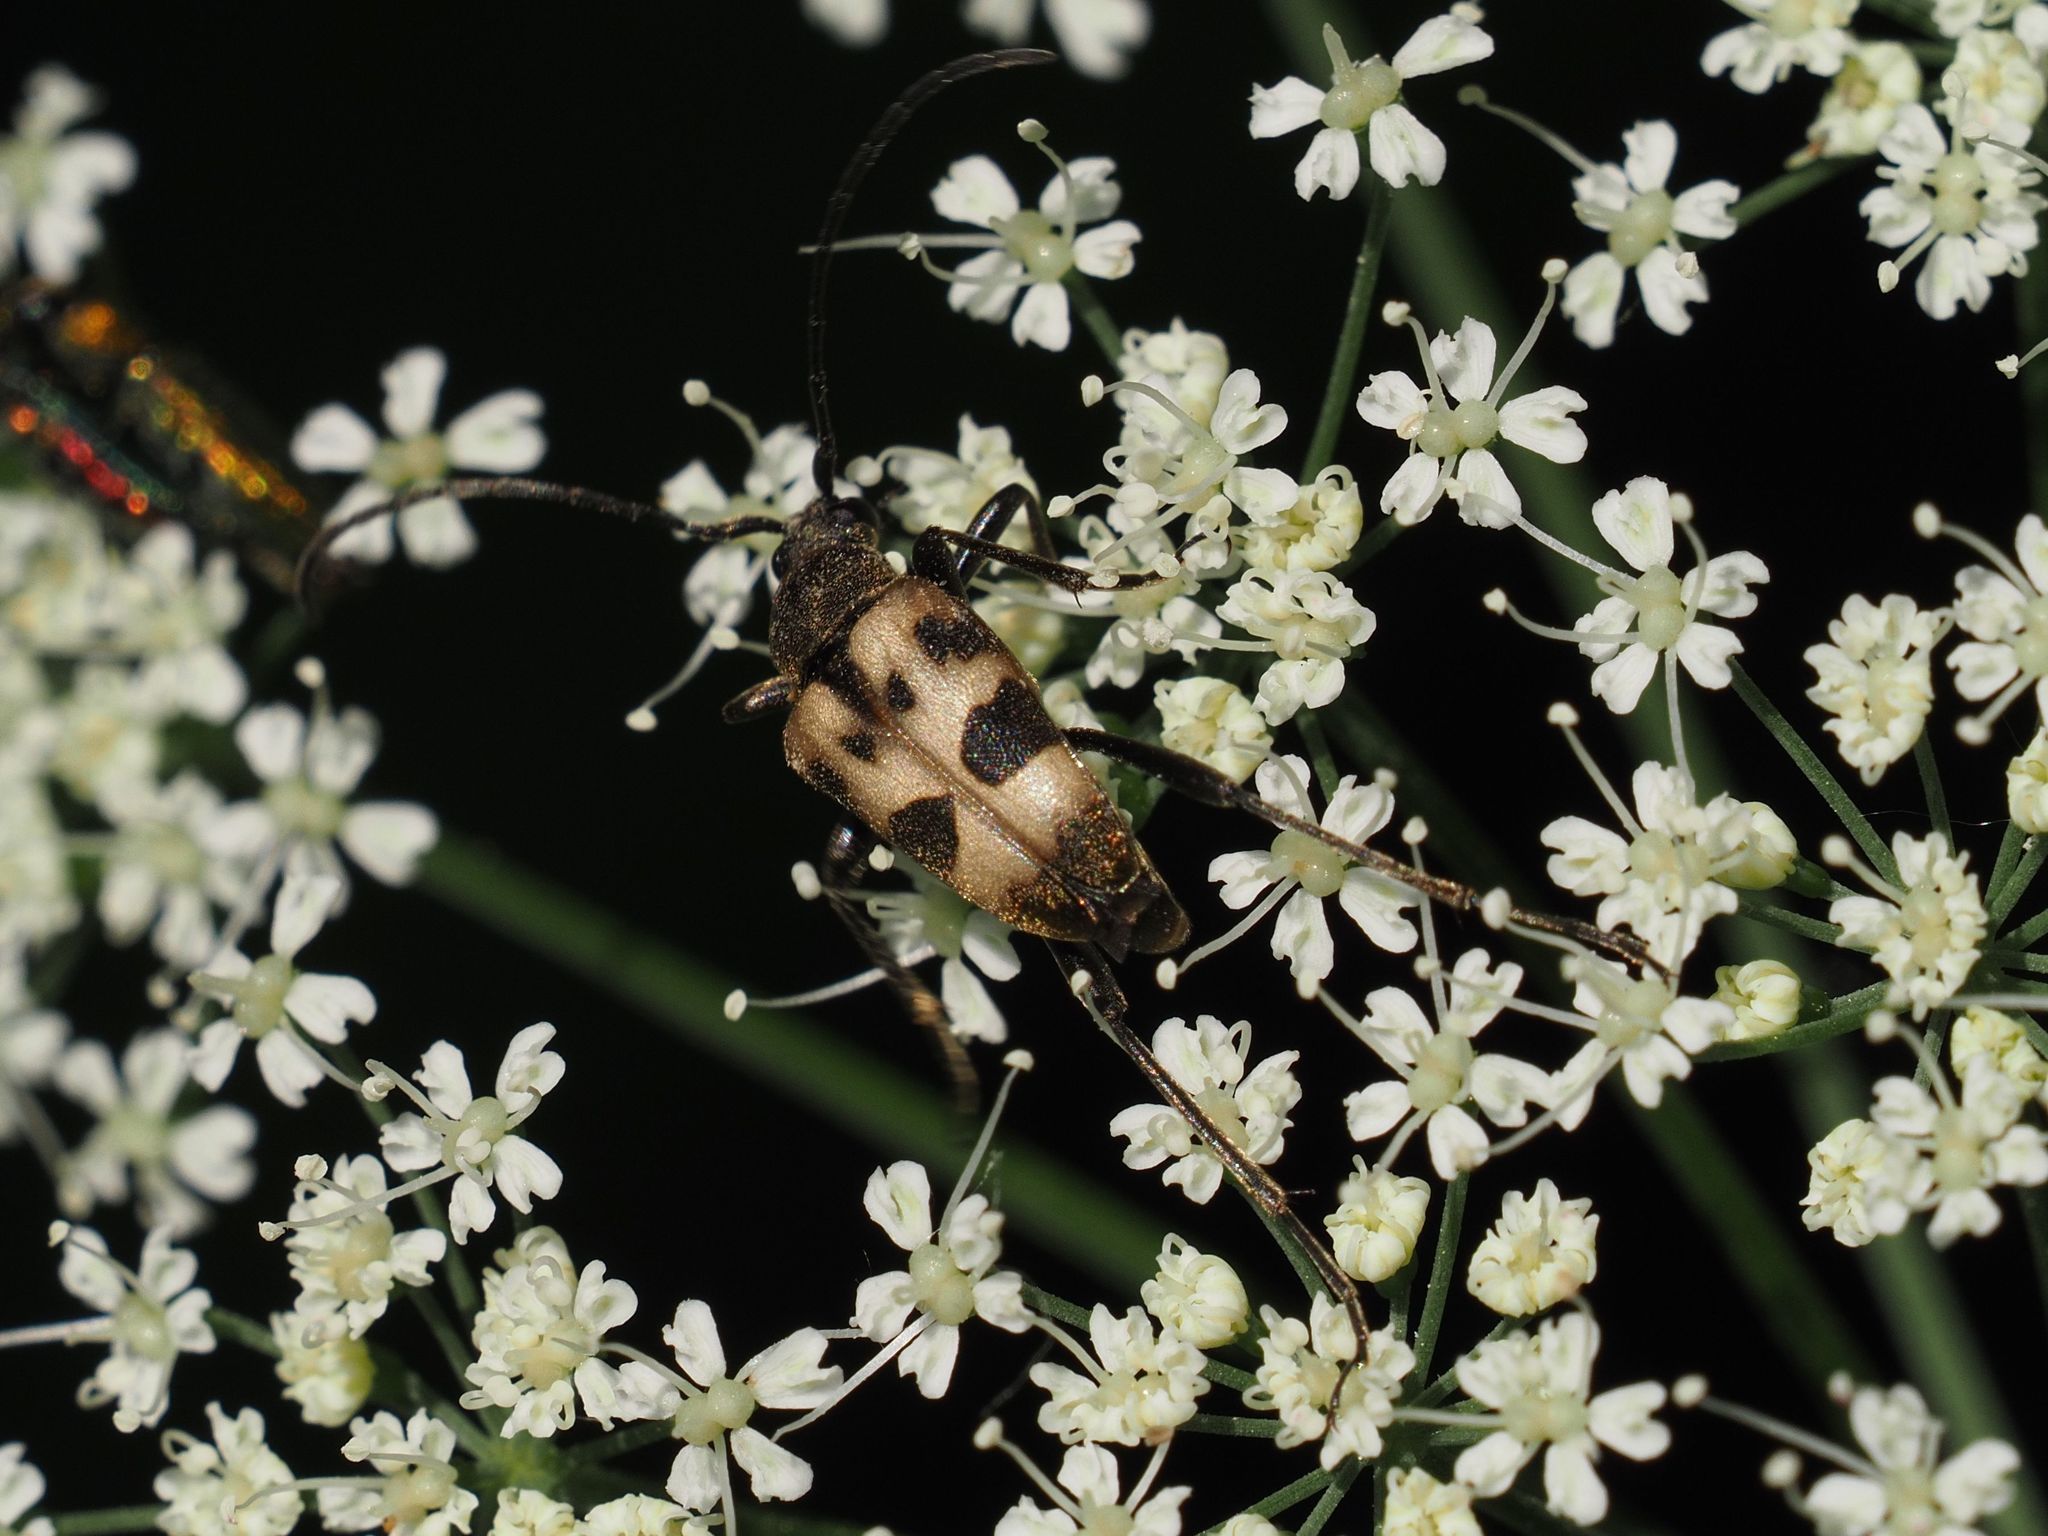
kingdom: Animalia
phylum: Arthropoda
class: Insecta
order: Coleoptera
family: Cerambycidae
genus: Pachytodes
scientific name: Pachytodes cerambyciformis
